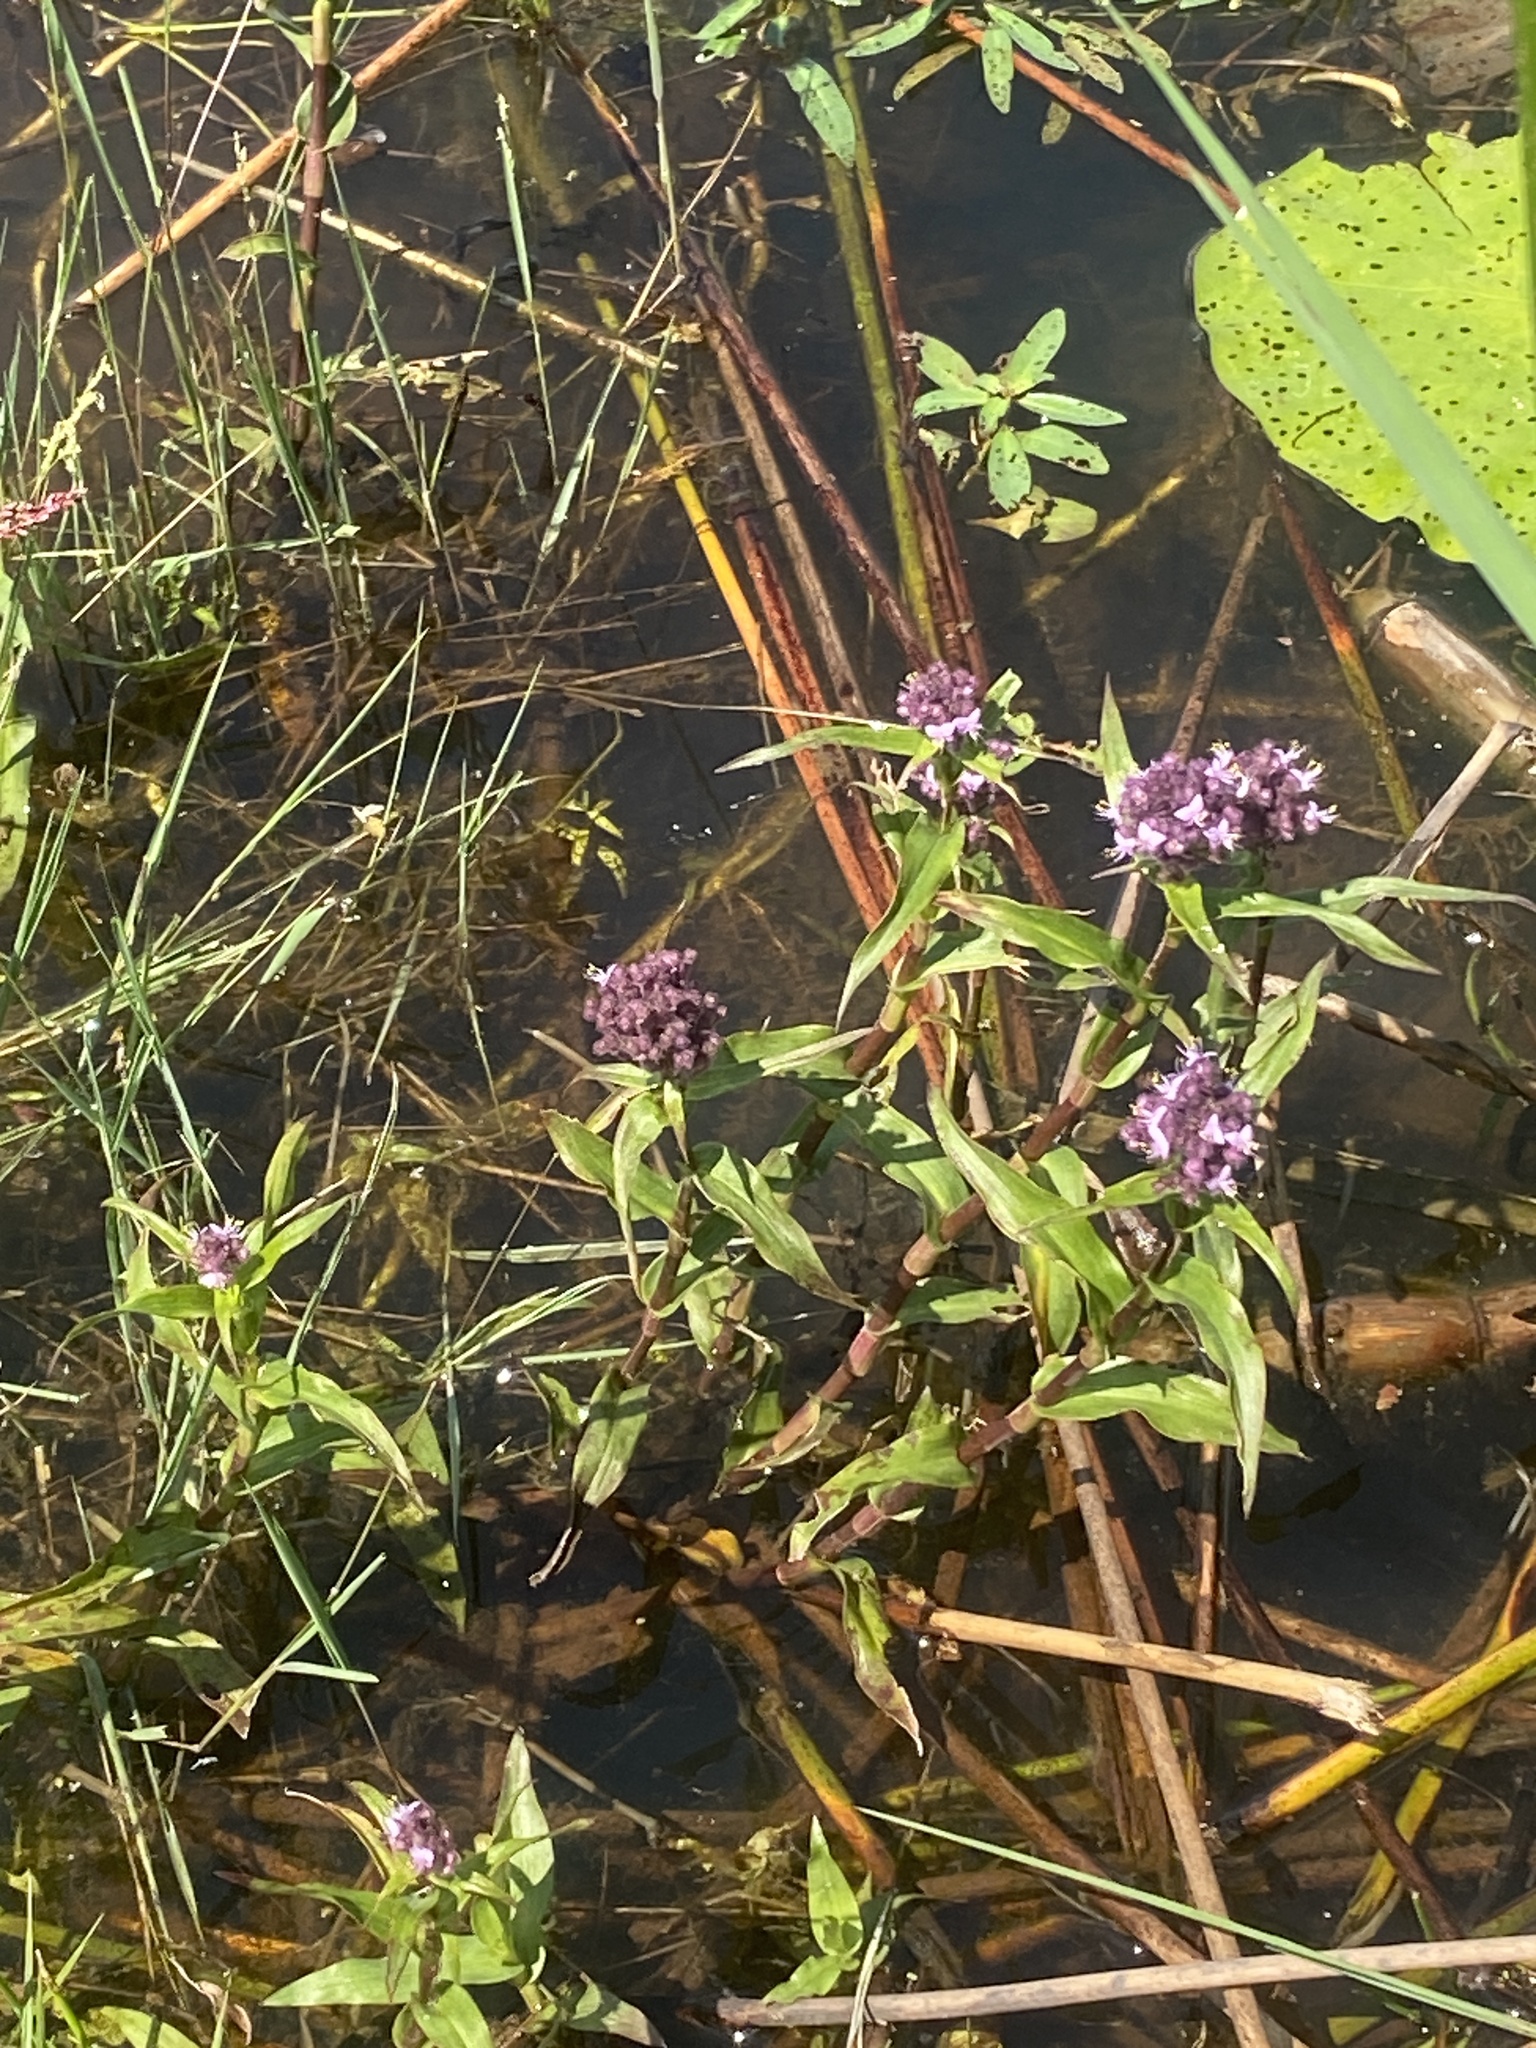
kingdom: Plantae
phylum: Tracheophyta
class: Liliopsida
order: Commelinales
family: Commelinaceae
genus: Floscopa
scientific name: Floscopa glomerata
